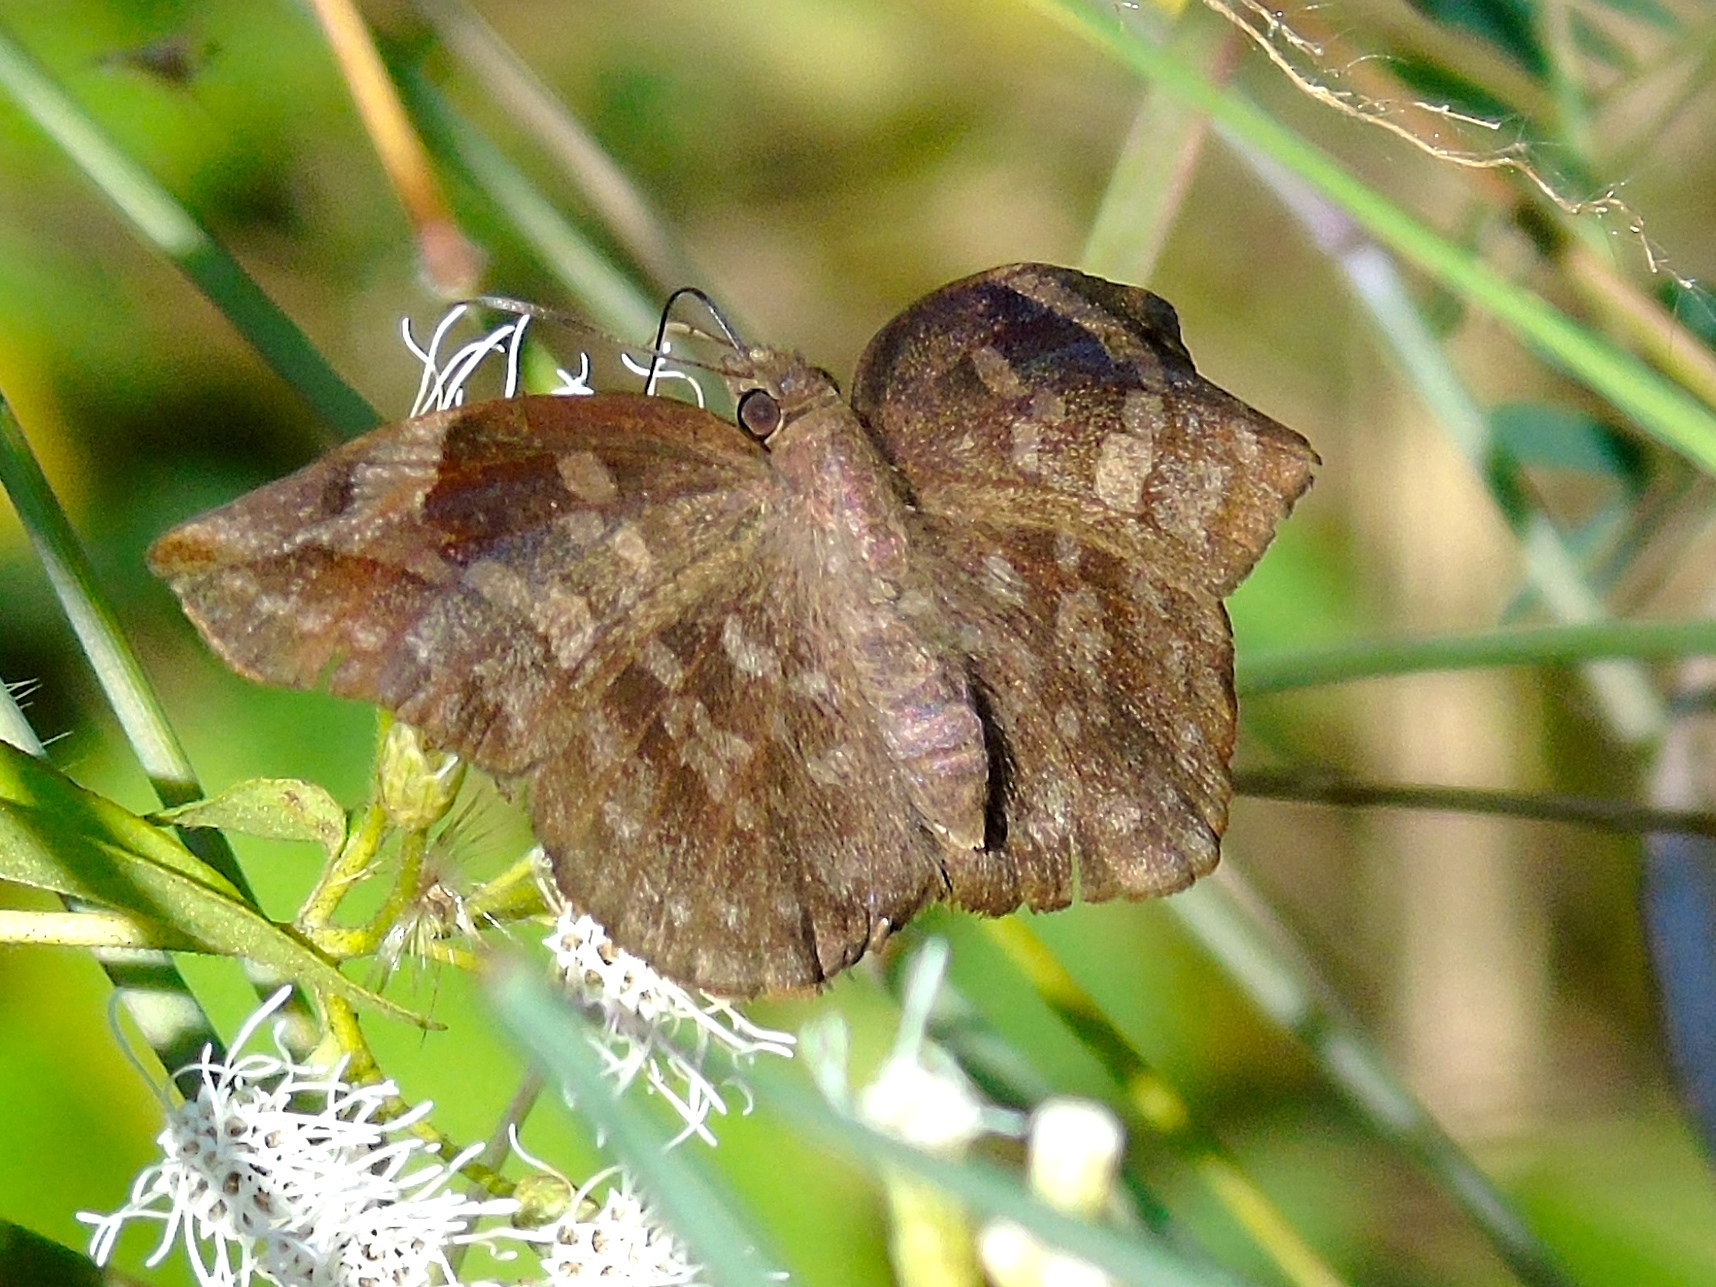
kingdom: Animalia
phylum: Arthropoda
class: Insecta
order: Lepidoptera
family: Hesperiidae
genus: Achlyodes
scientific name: Achlyodes thraso
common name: Sickle-winged skipper
